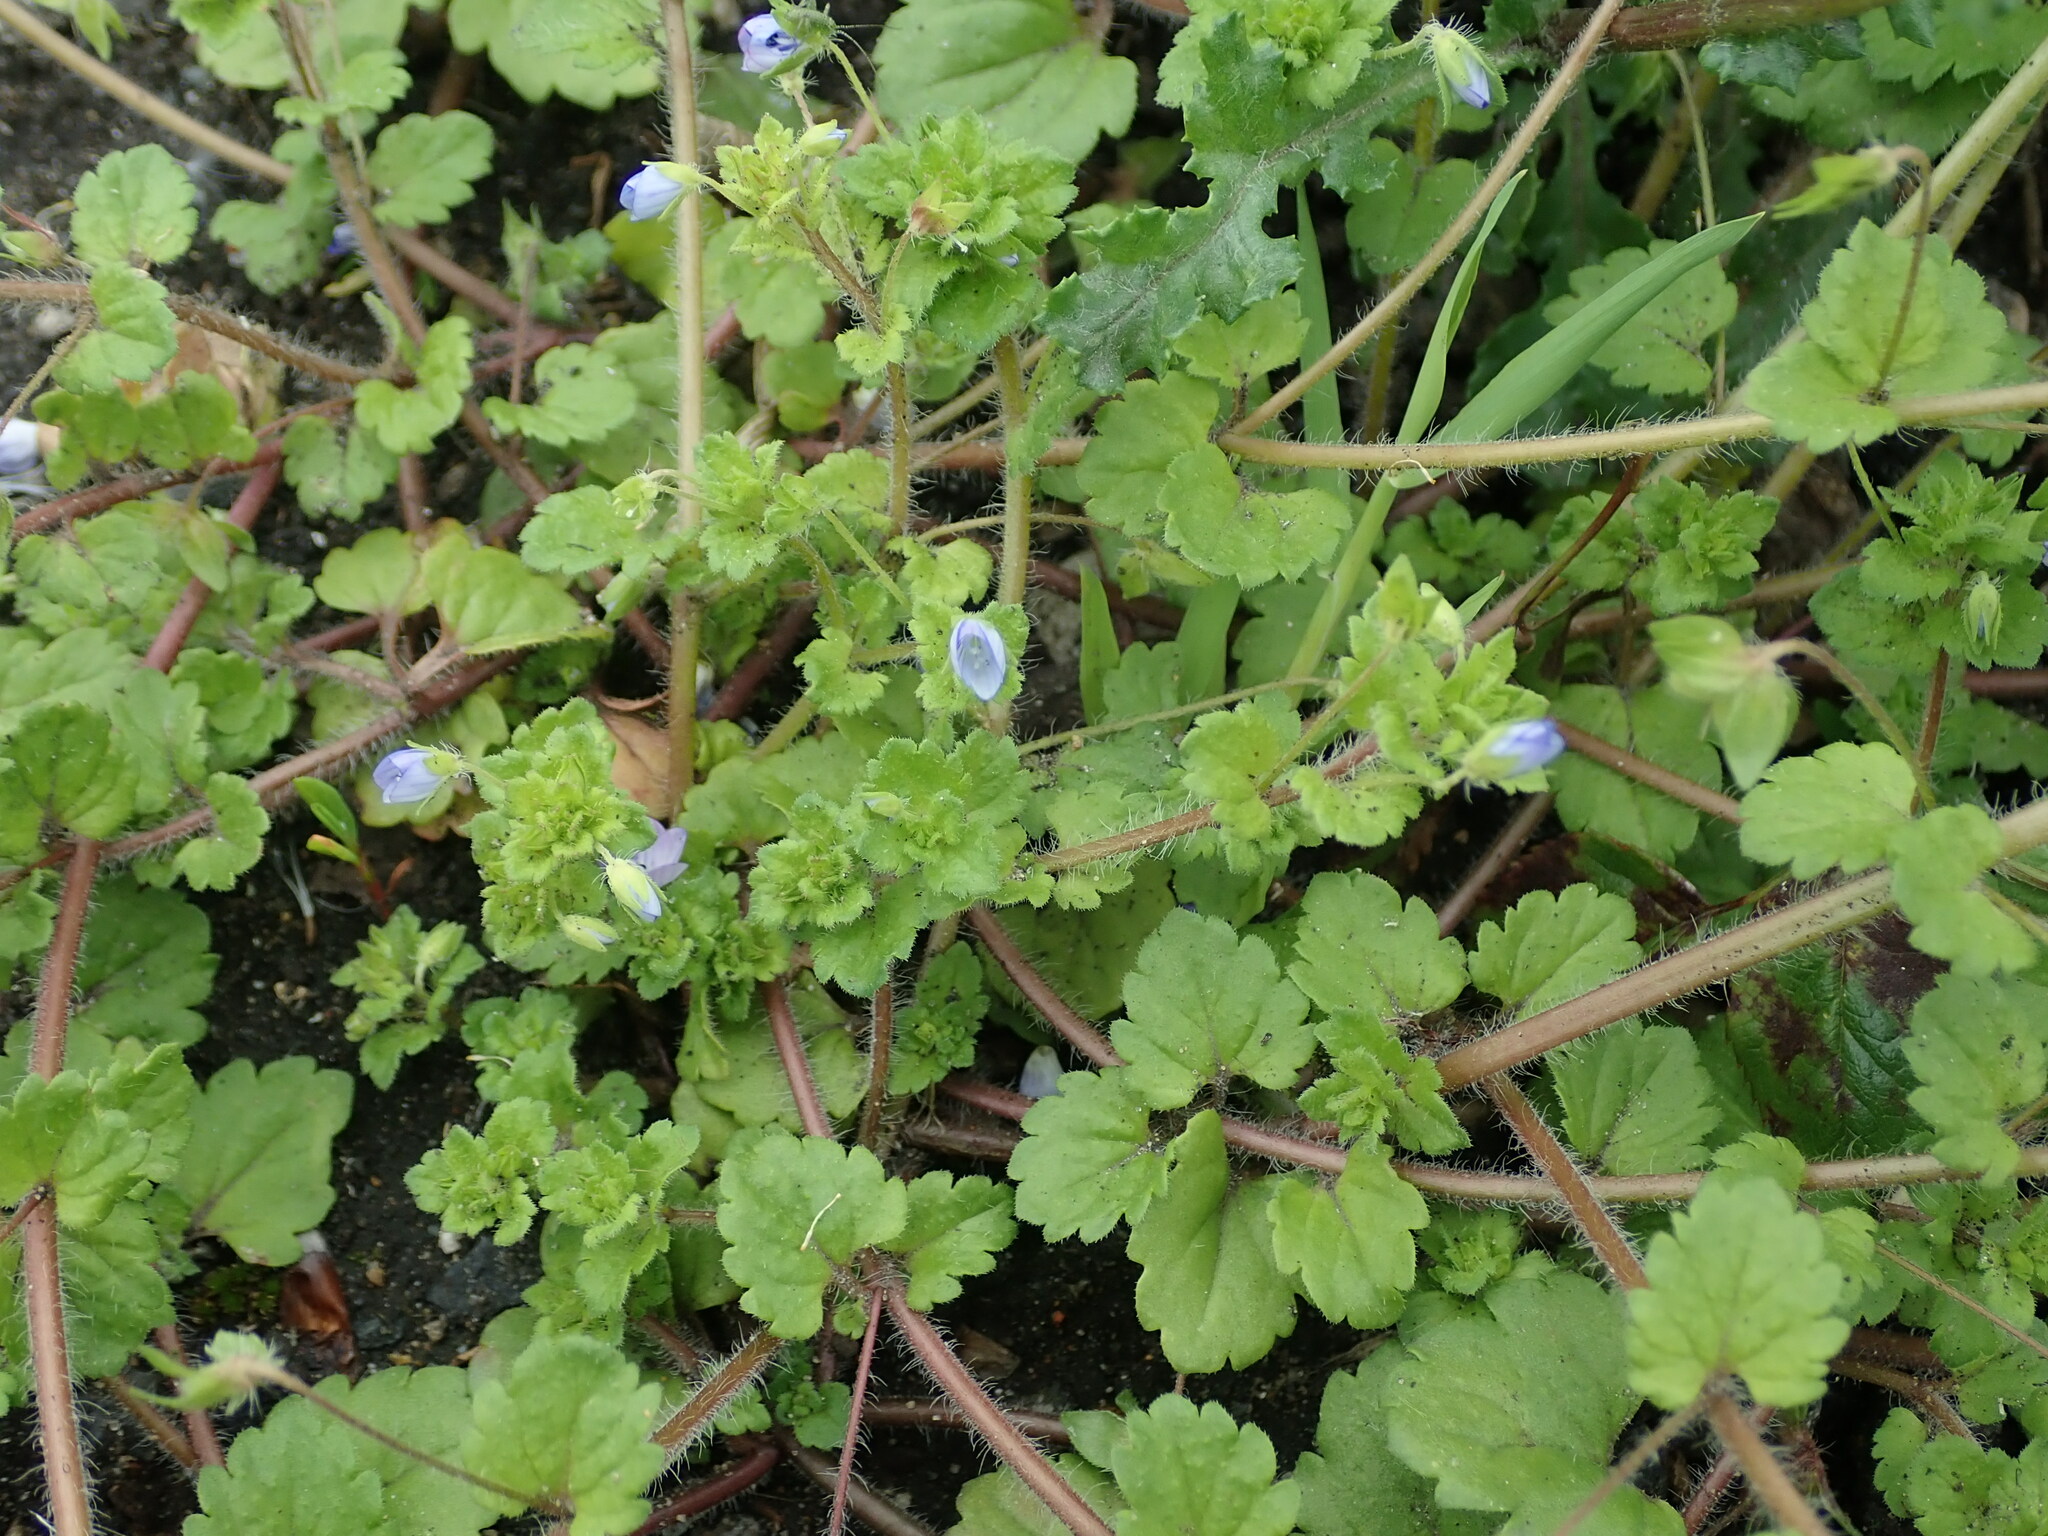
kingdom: Plantae
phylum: Tracheophyta
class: Magnoliopsida
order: Lamiales
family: Plantaginaceae
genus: Veronica
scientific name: Veronica persica
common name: Common field-speedwell
